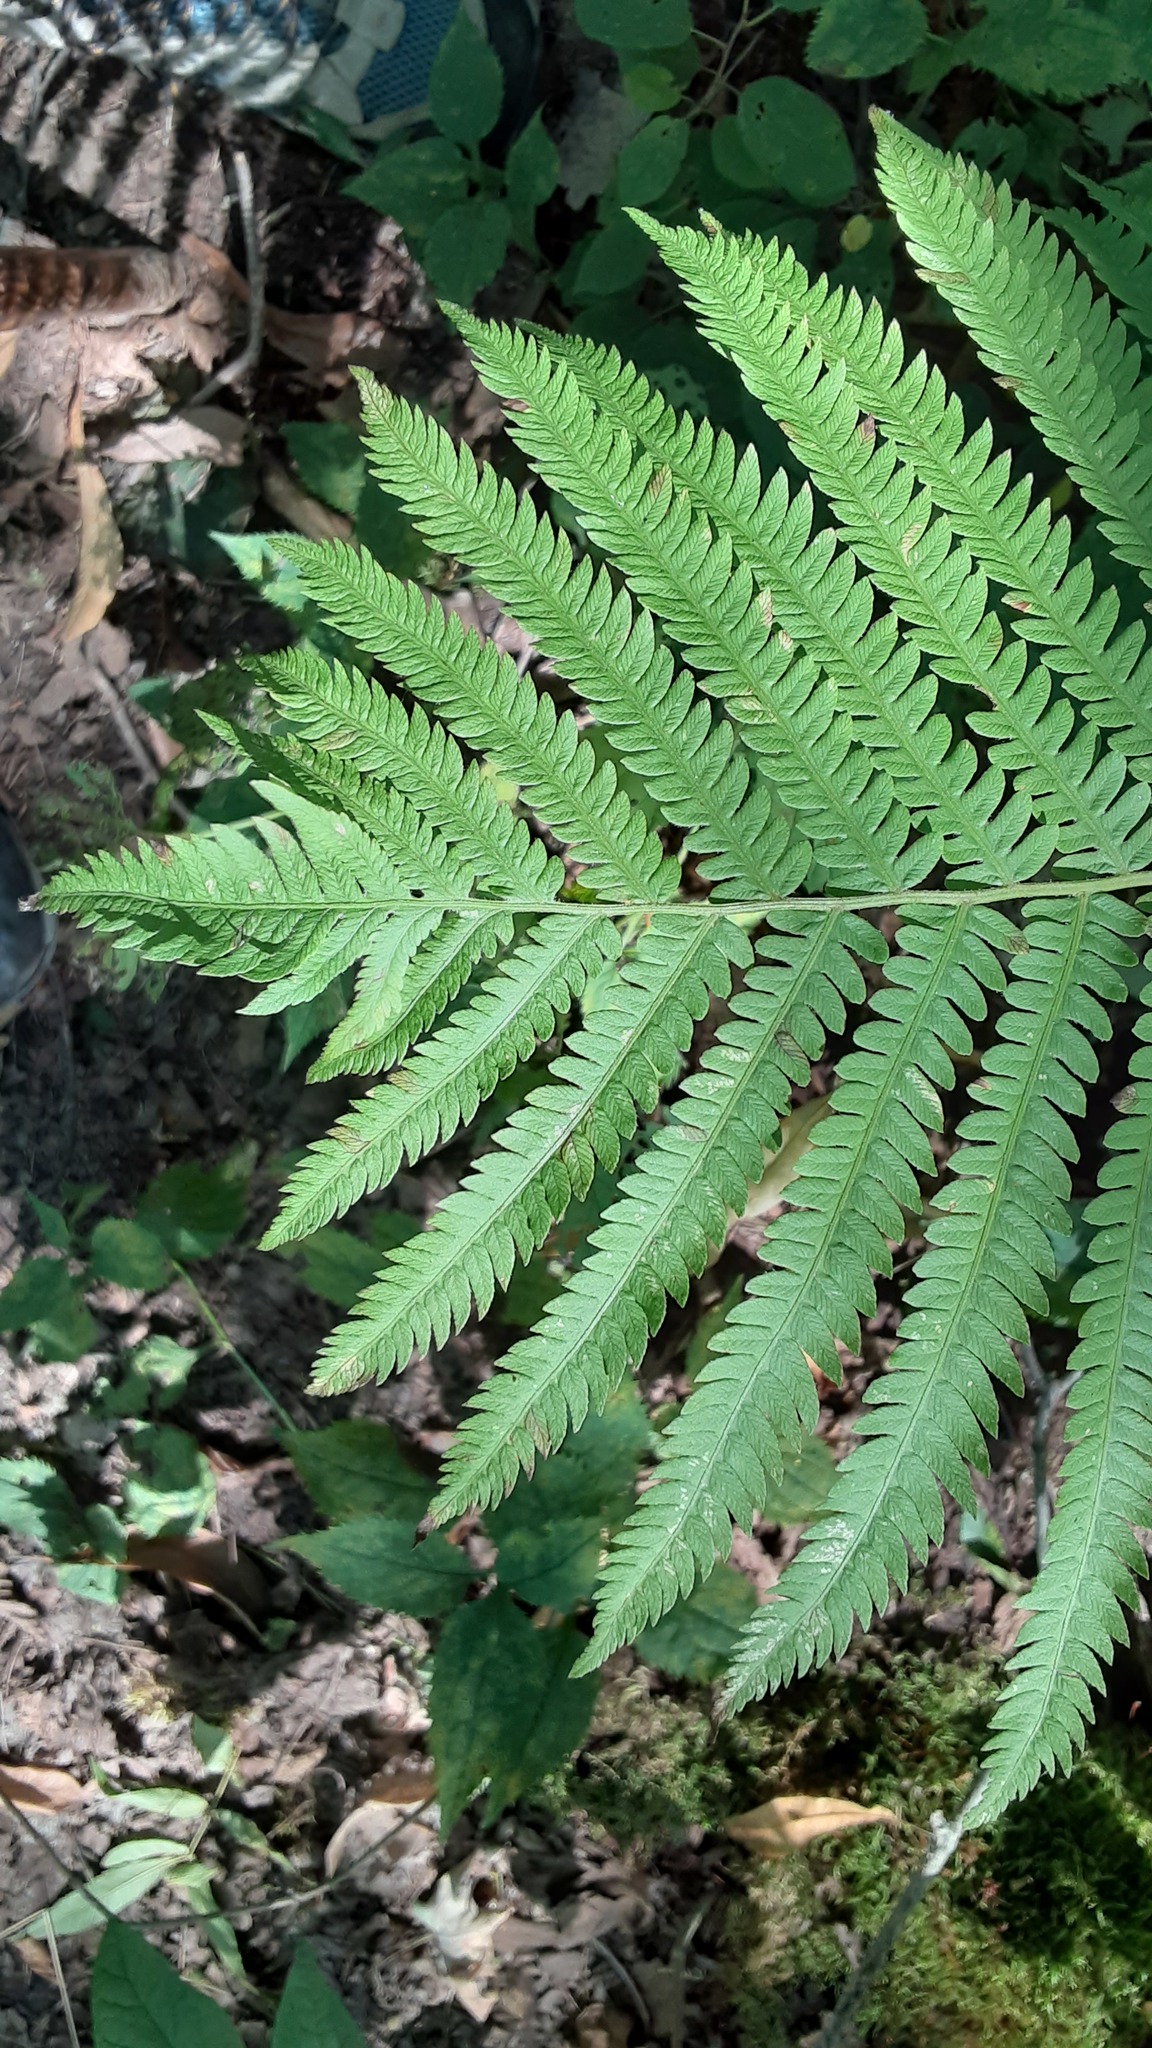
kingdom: Plantae
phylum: Tracheophyta
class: Polypodiopsida
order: Polypodiales
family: Onocleaceae
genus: Matteuccia
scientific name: Matteuccia struthiopteris
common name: Ostrich fern
